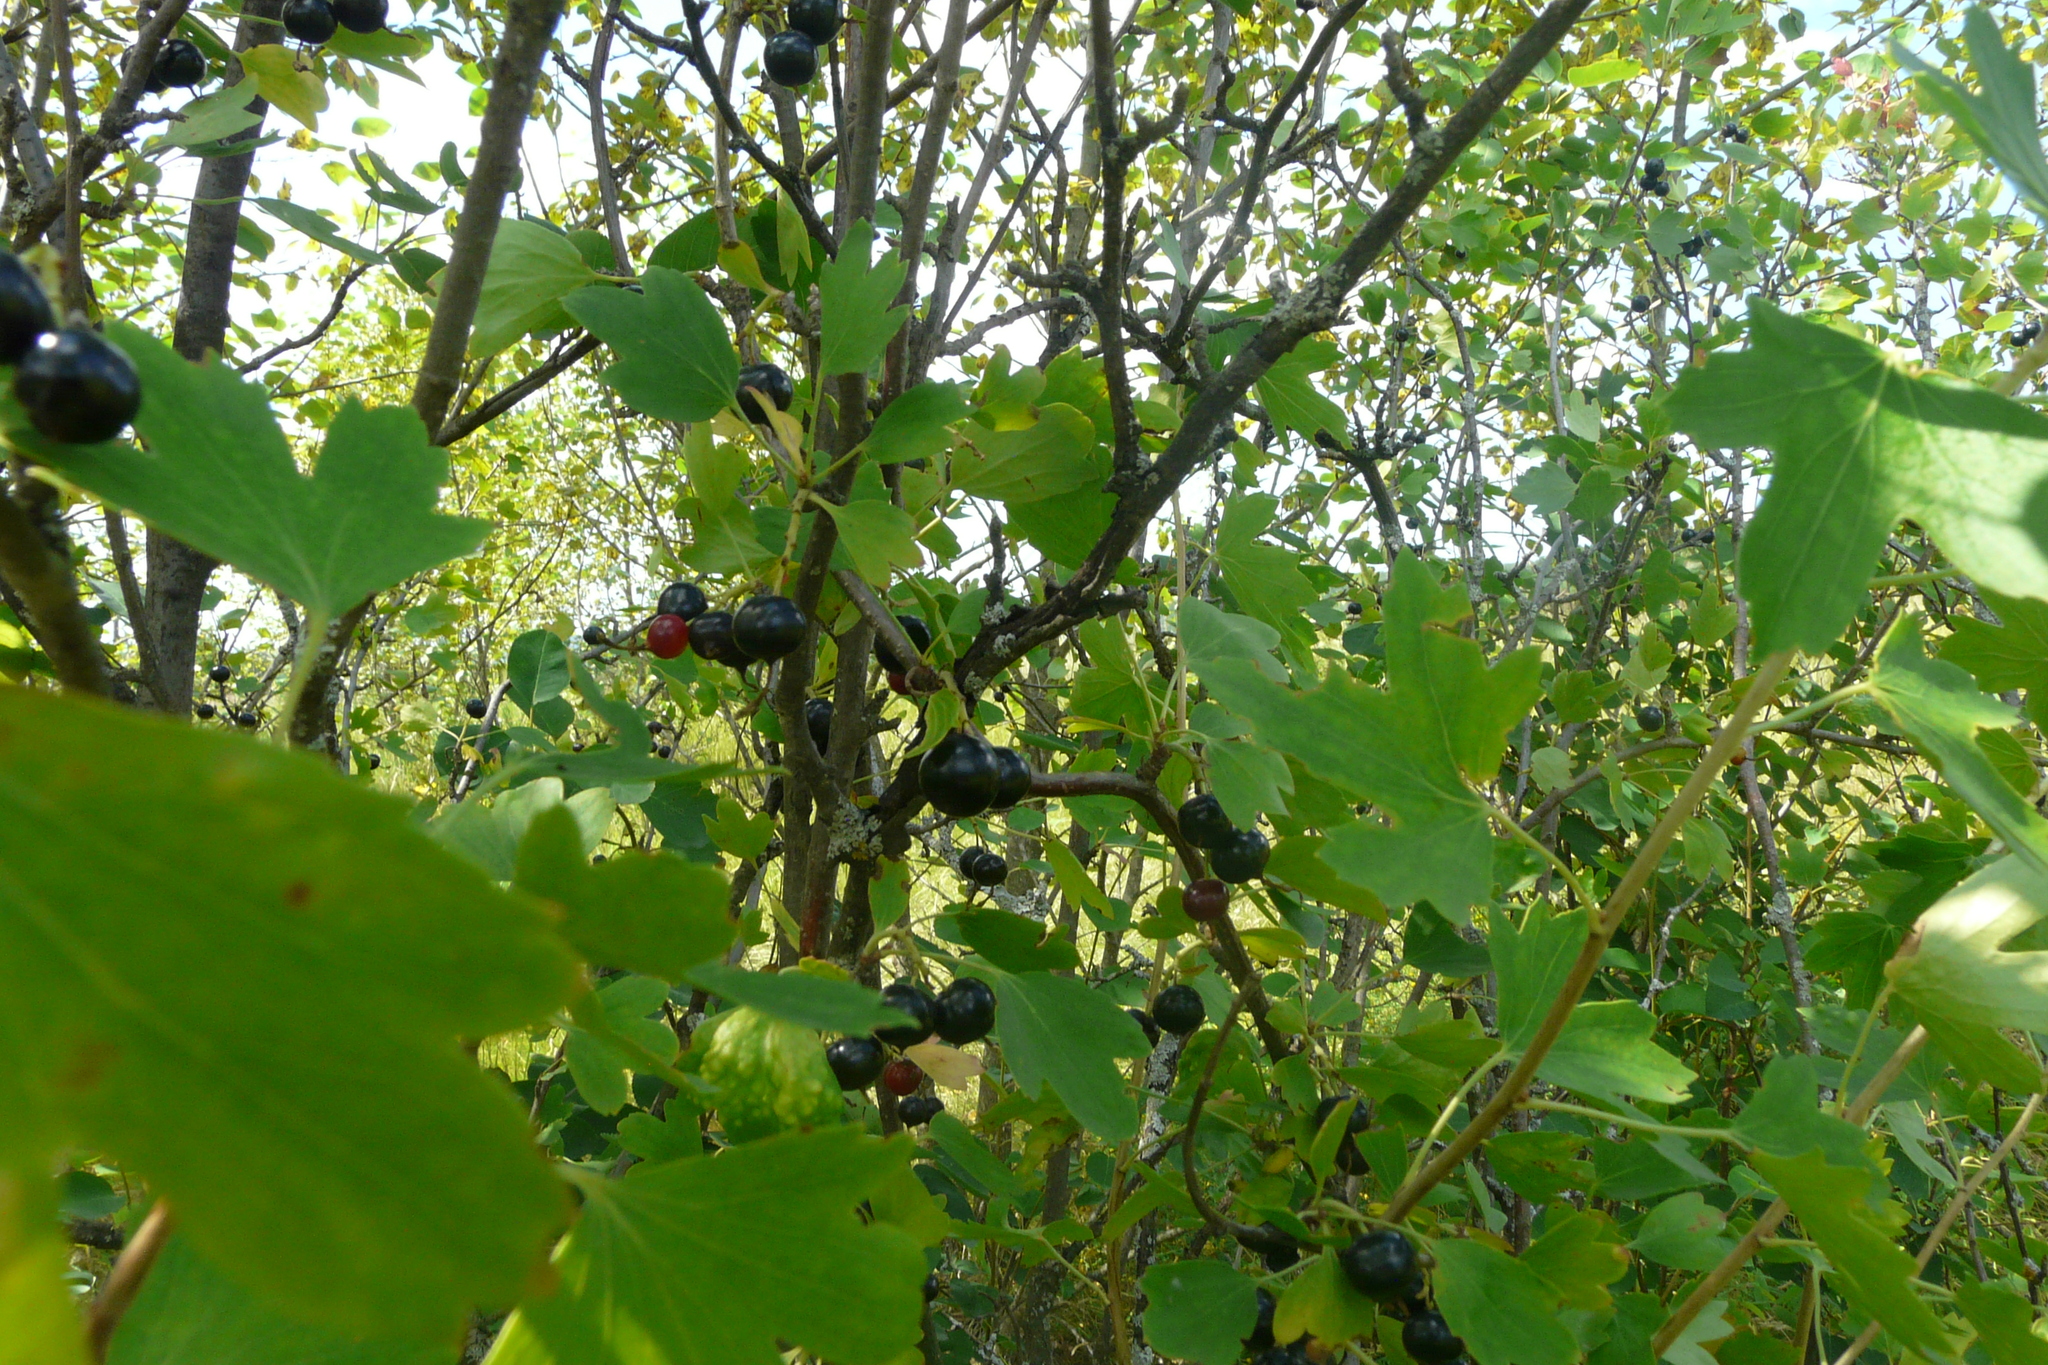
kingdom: Plantae
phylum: Tracheophyta
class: Magnoliopsida
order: Saxifragales
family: Grossulariaceae
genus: Ribes
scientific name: Ribes aureum
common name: Golden currant
